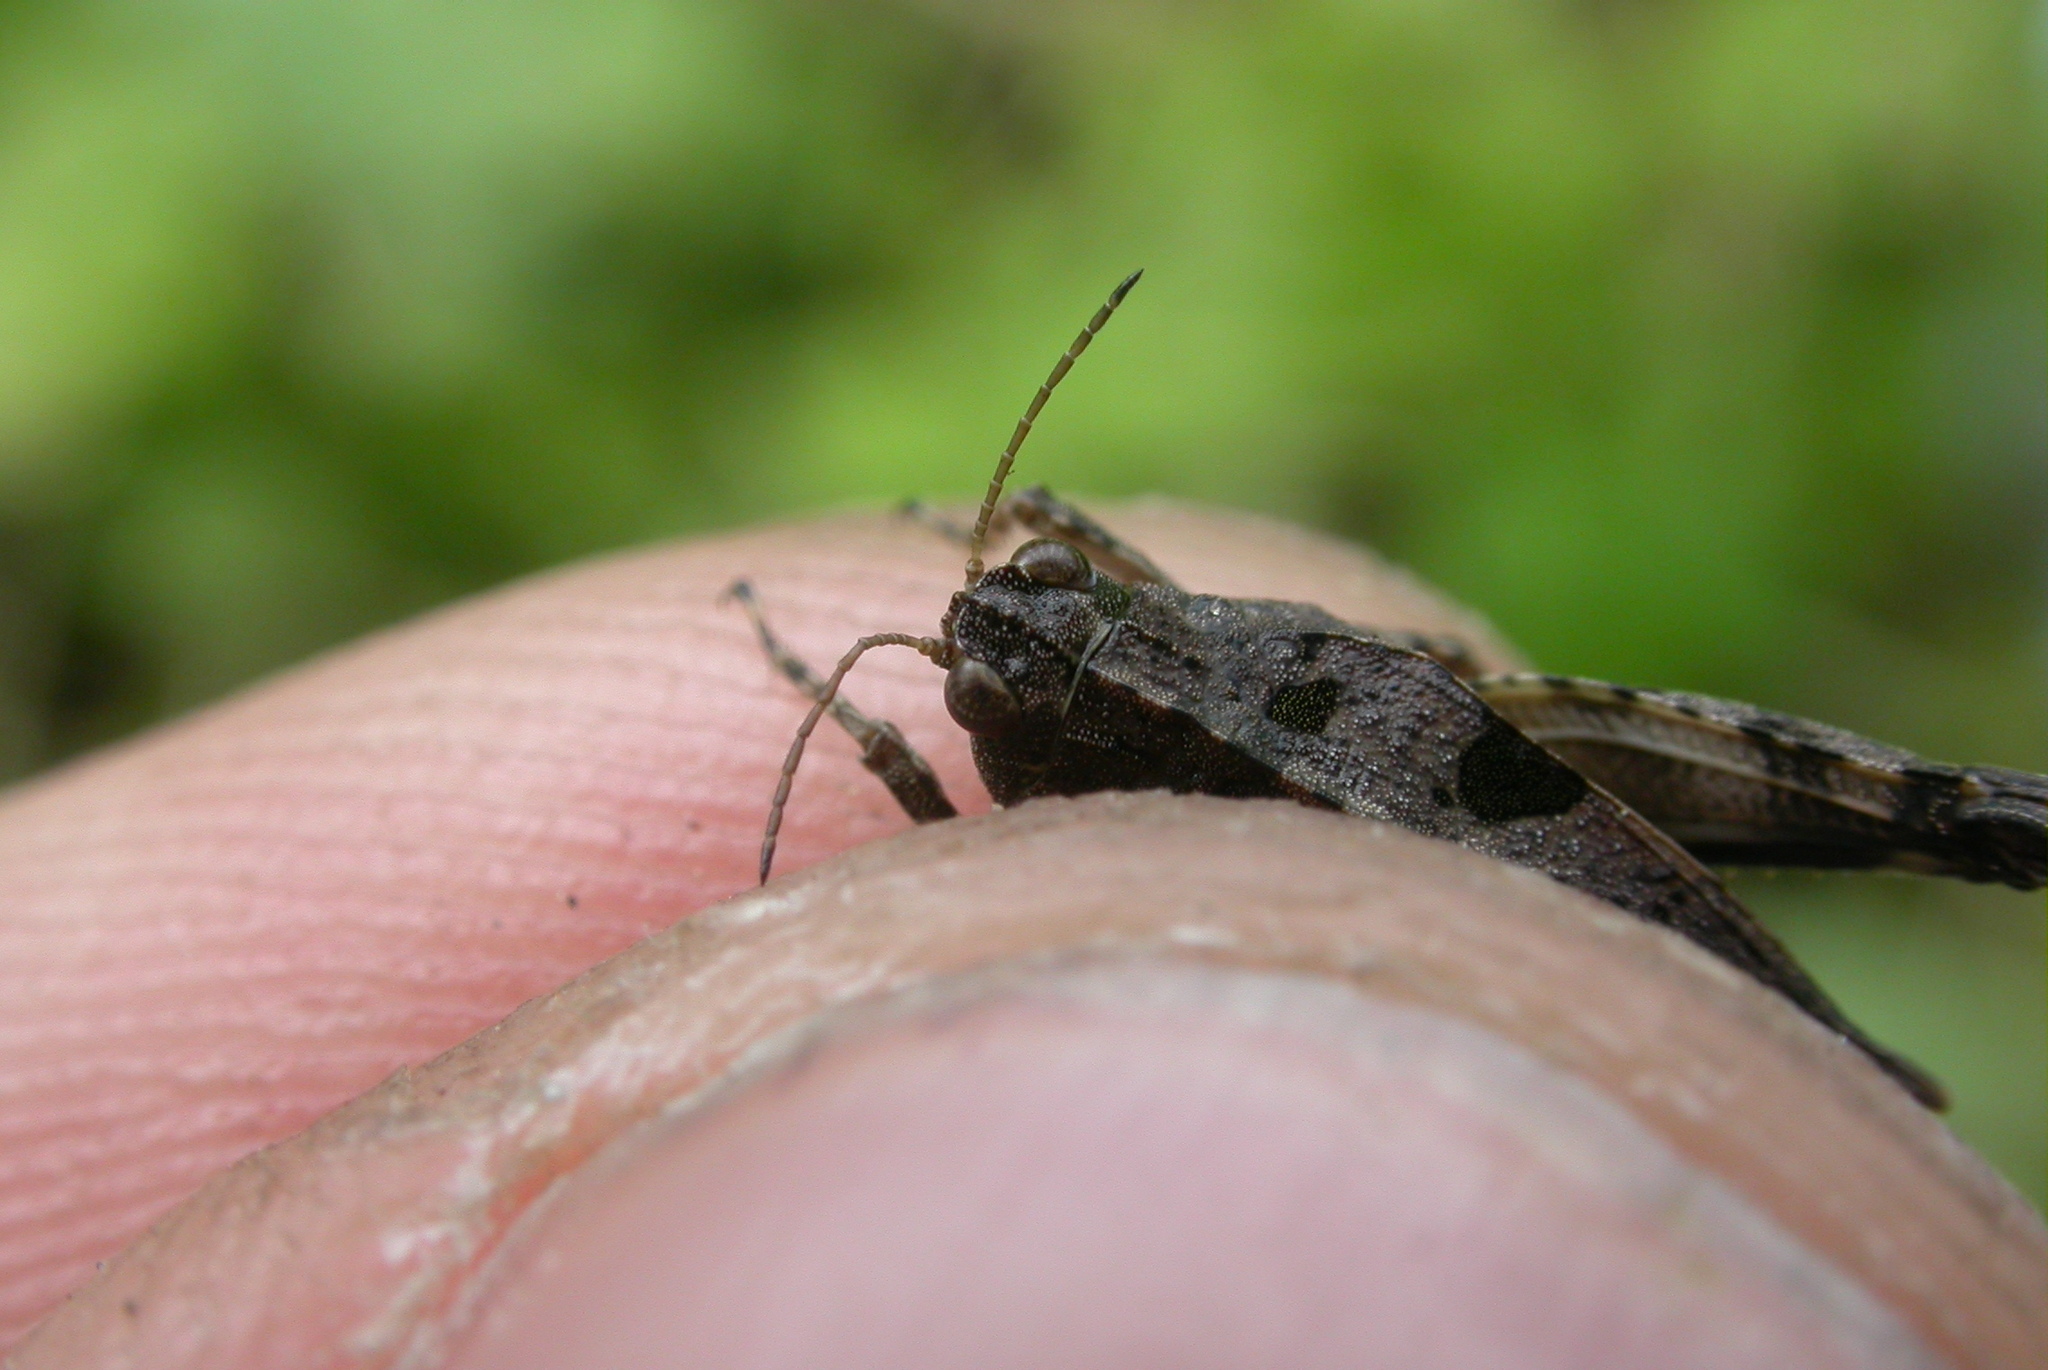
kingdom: Animalia
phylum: Arthropoda
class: Insecta
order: Orthoptera
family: Tetrigidae
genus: Tetrix
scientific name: Tetrix tenuicornis
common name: Long-horned groundhopper
